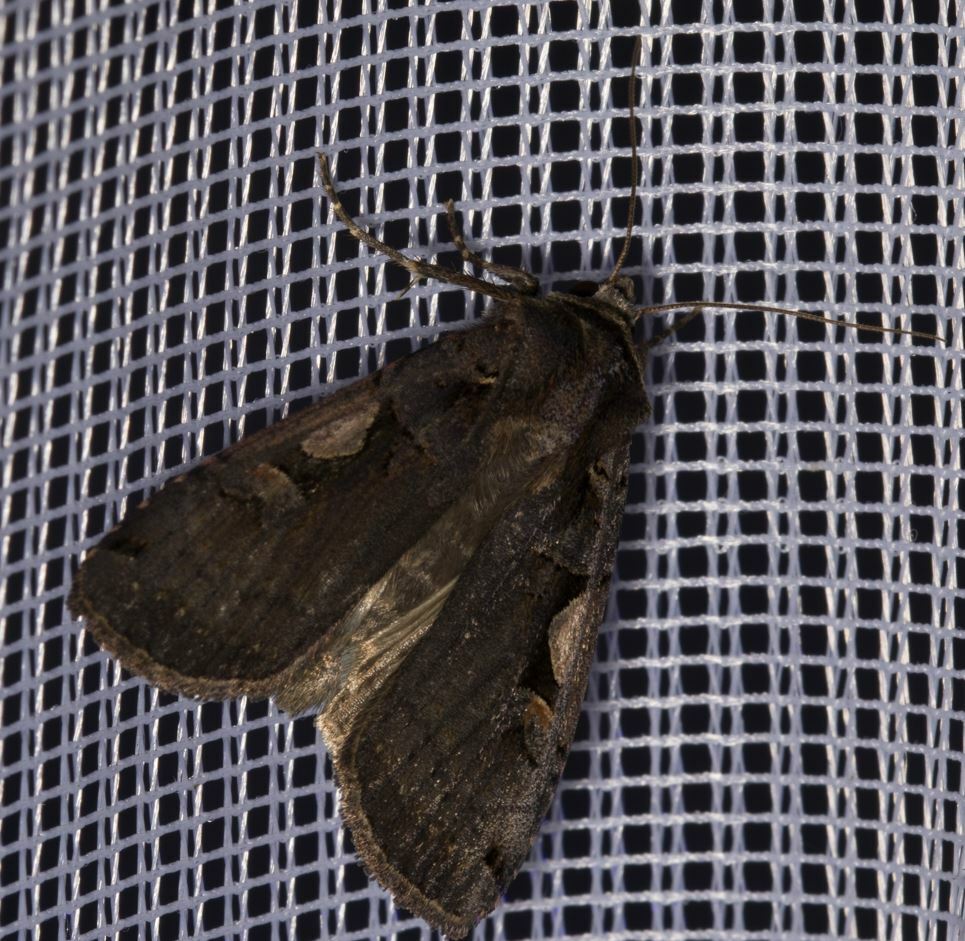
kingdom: Animalia
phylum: Arthropoda
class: Insecta
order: Lepidoptera
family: Noctuidae
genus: Xestia
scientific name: Xestia c-nigrum
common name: Setaceous hebrew character
